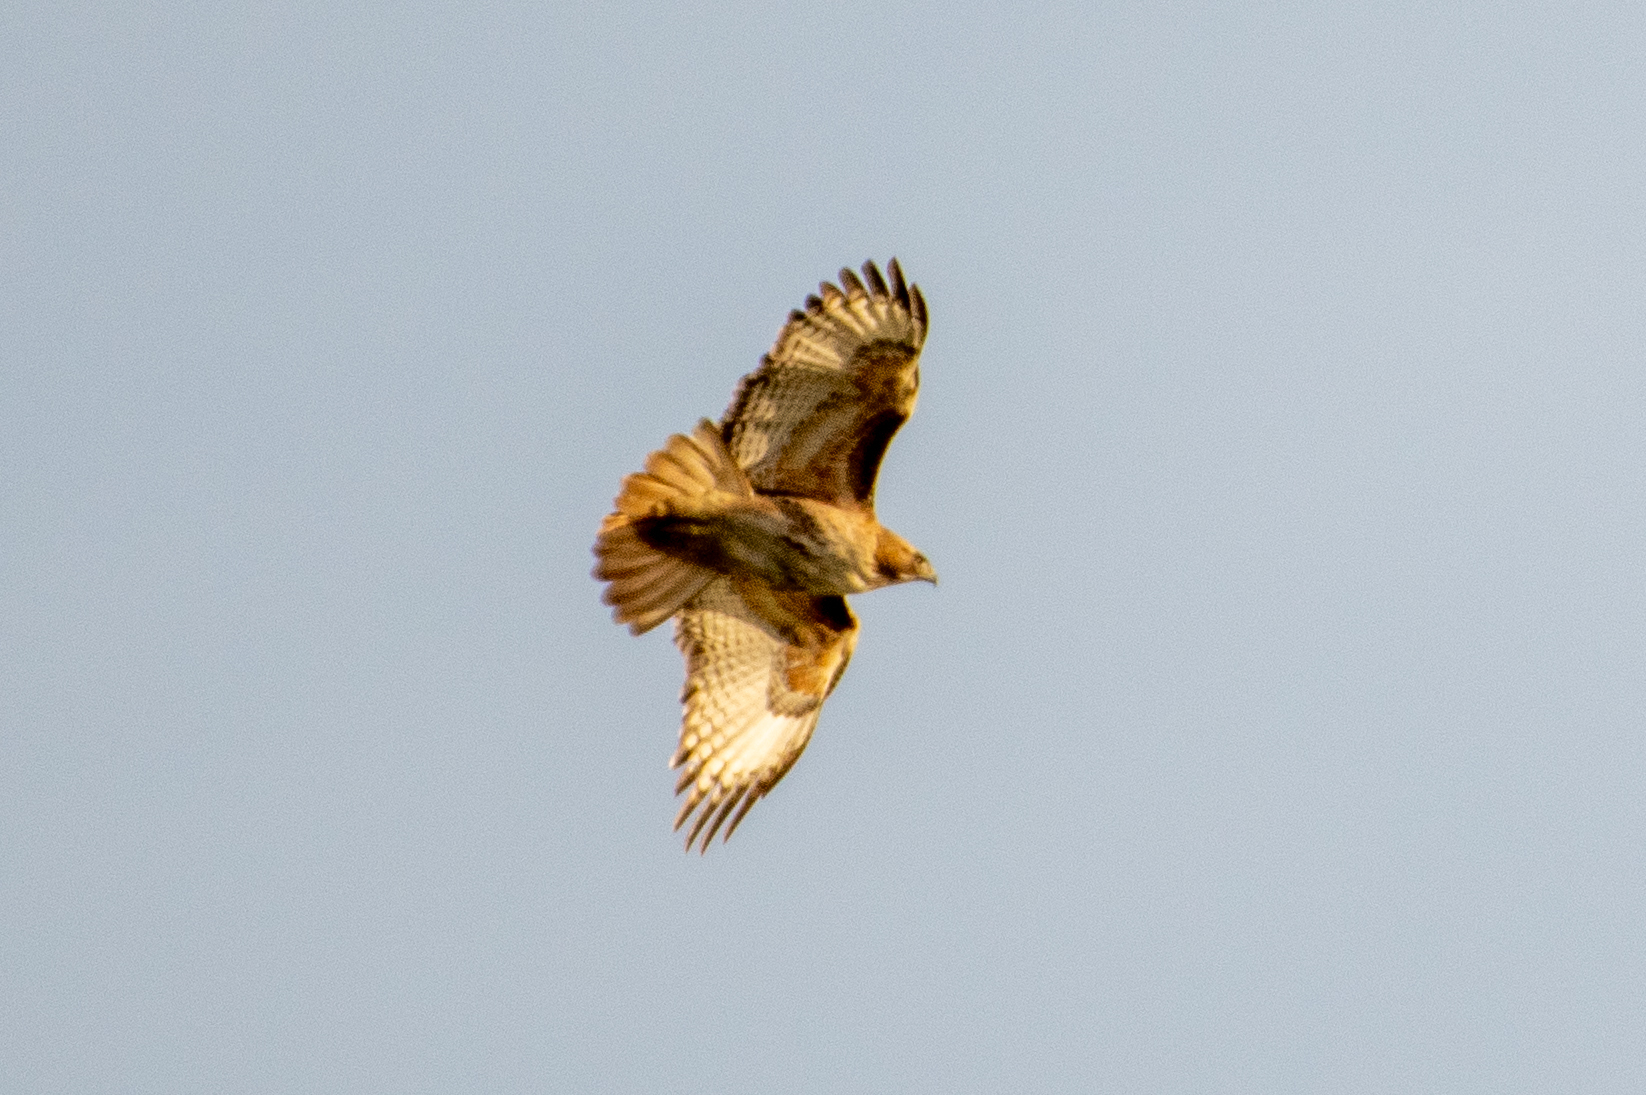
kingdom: Animalia
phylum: Chordata
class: Aves
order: Accipitriformes
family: Accipitridae
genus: Buteo
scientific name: Buteo jamaicensis
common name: Red-tailed hawk
